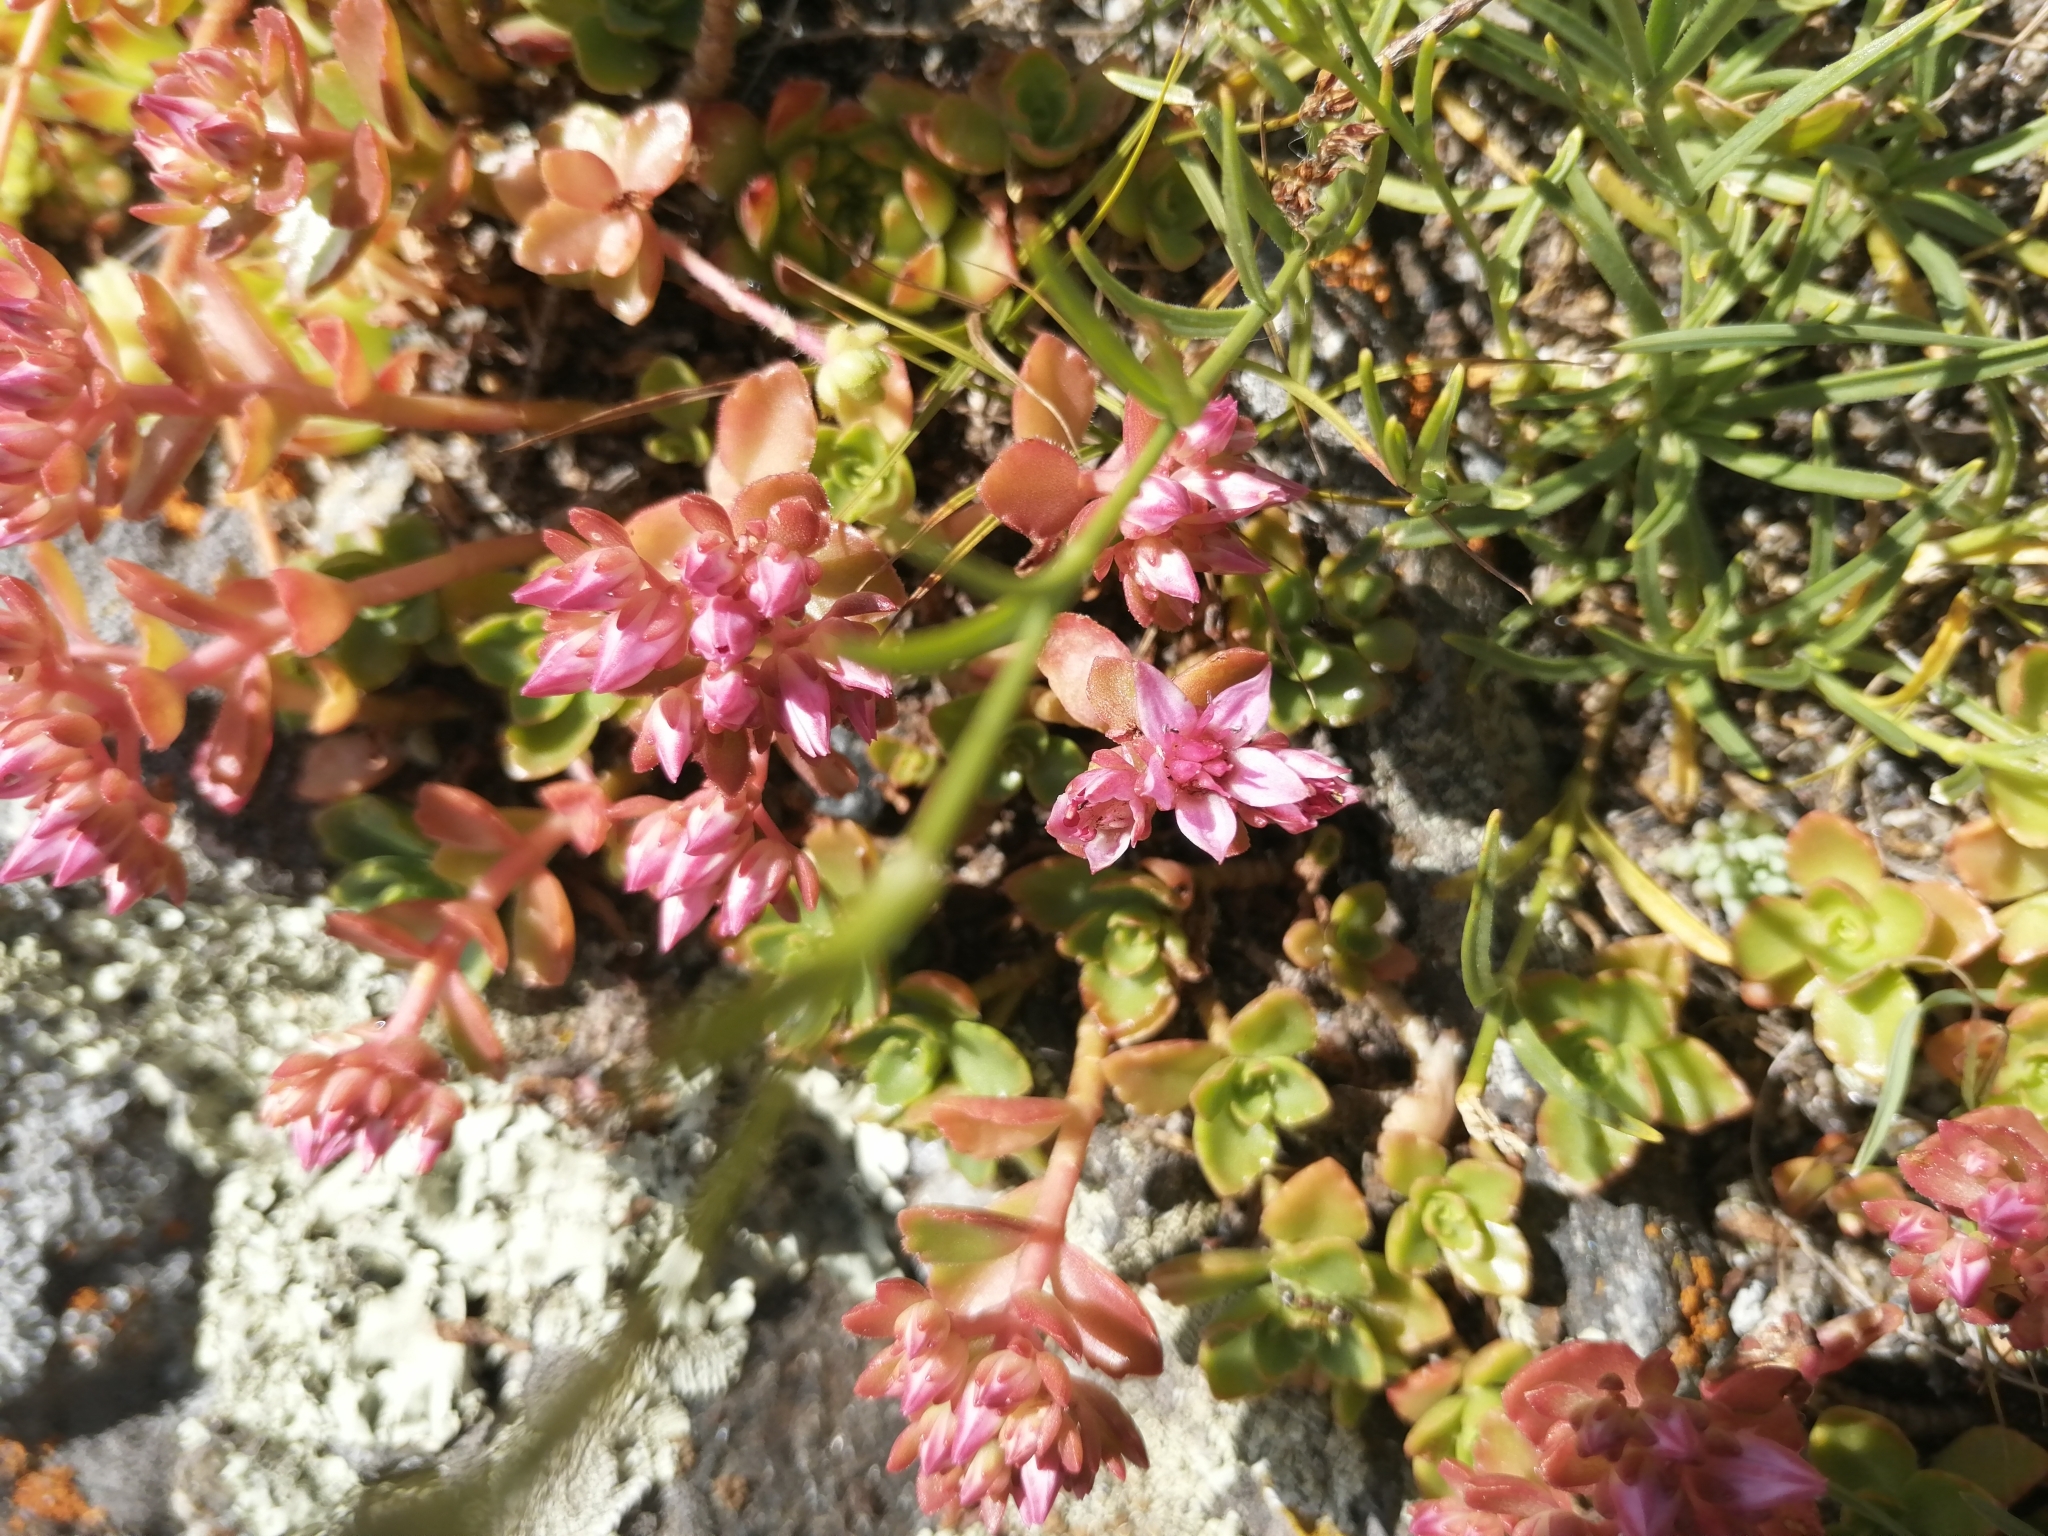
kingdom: Plantae
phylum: Tracheophyta
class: Magnoliopsida
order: Saxifragales
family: Crassulaceae
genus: Phedimus
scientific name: Phedimus spurius
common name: Caucasian stonecrop
